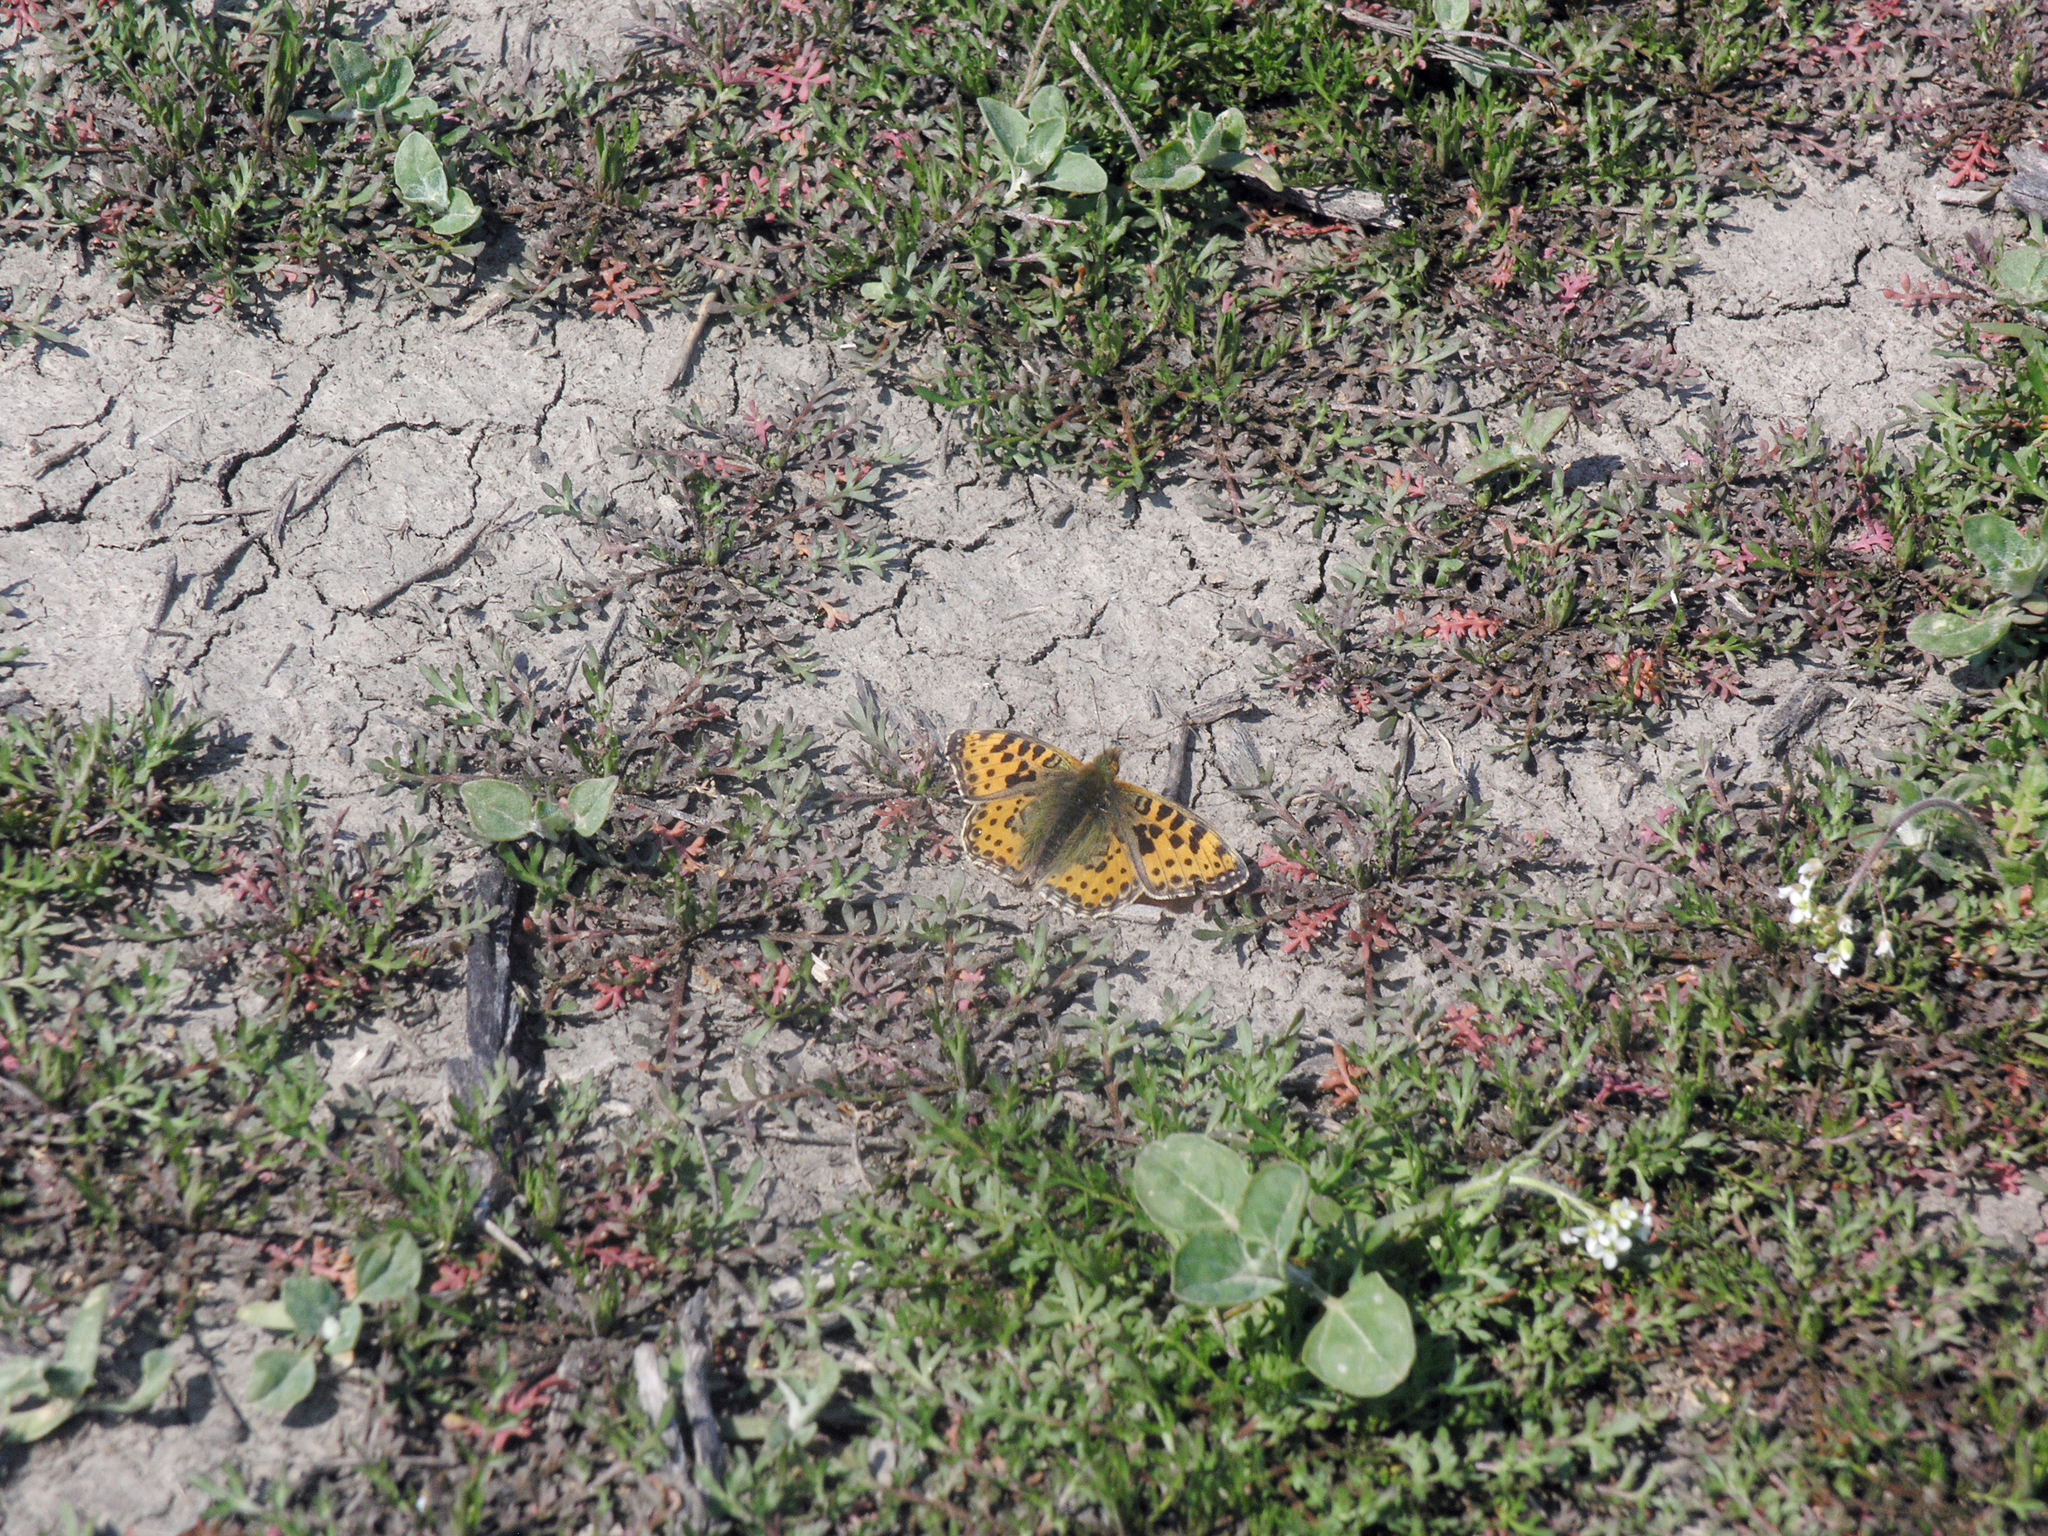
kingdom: Animalia
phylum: Arthropoda
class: Insecta
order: Lepidoptera
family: Nymphalidae
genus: Issoria
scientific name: Issoria lathonia
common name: Queen of spain fritillary
